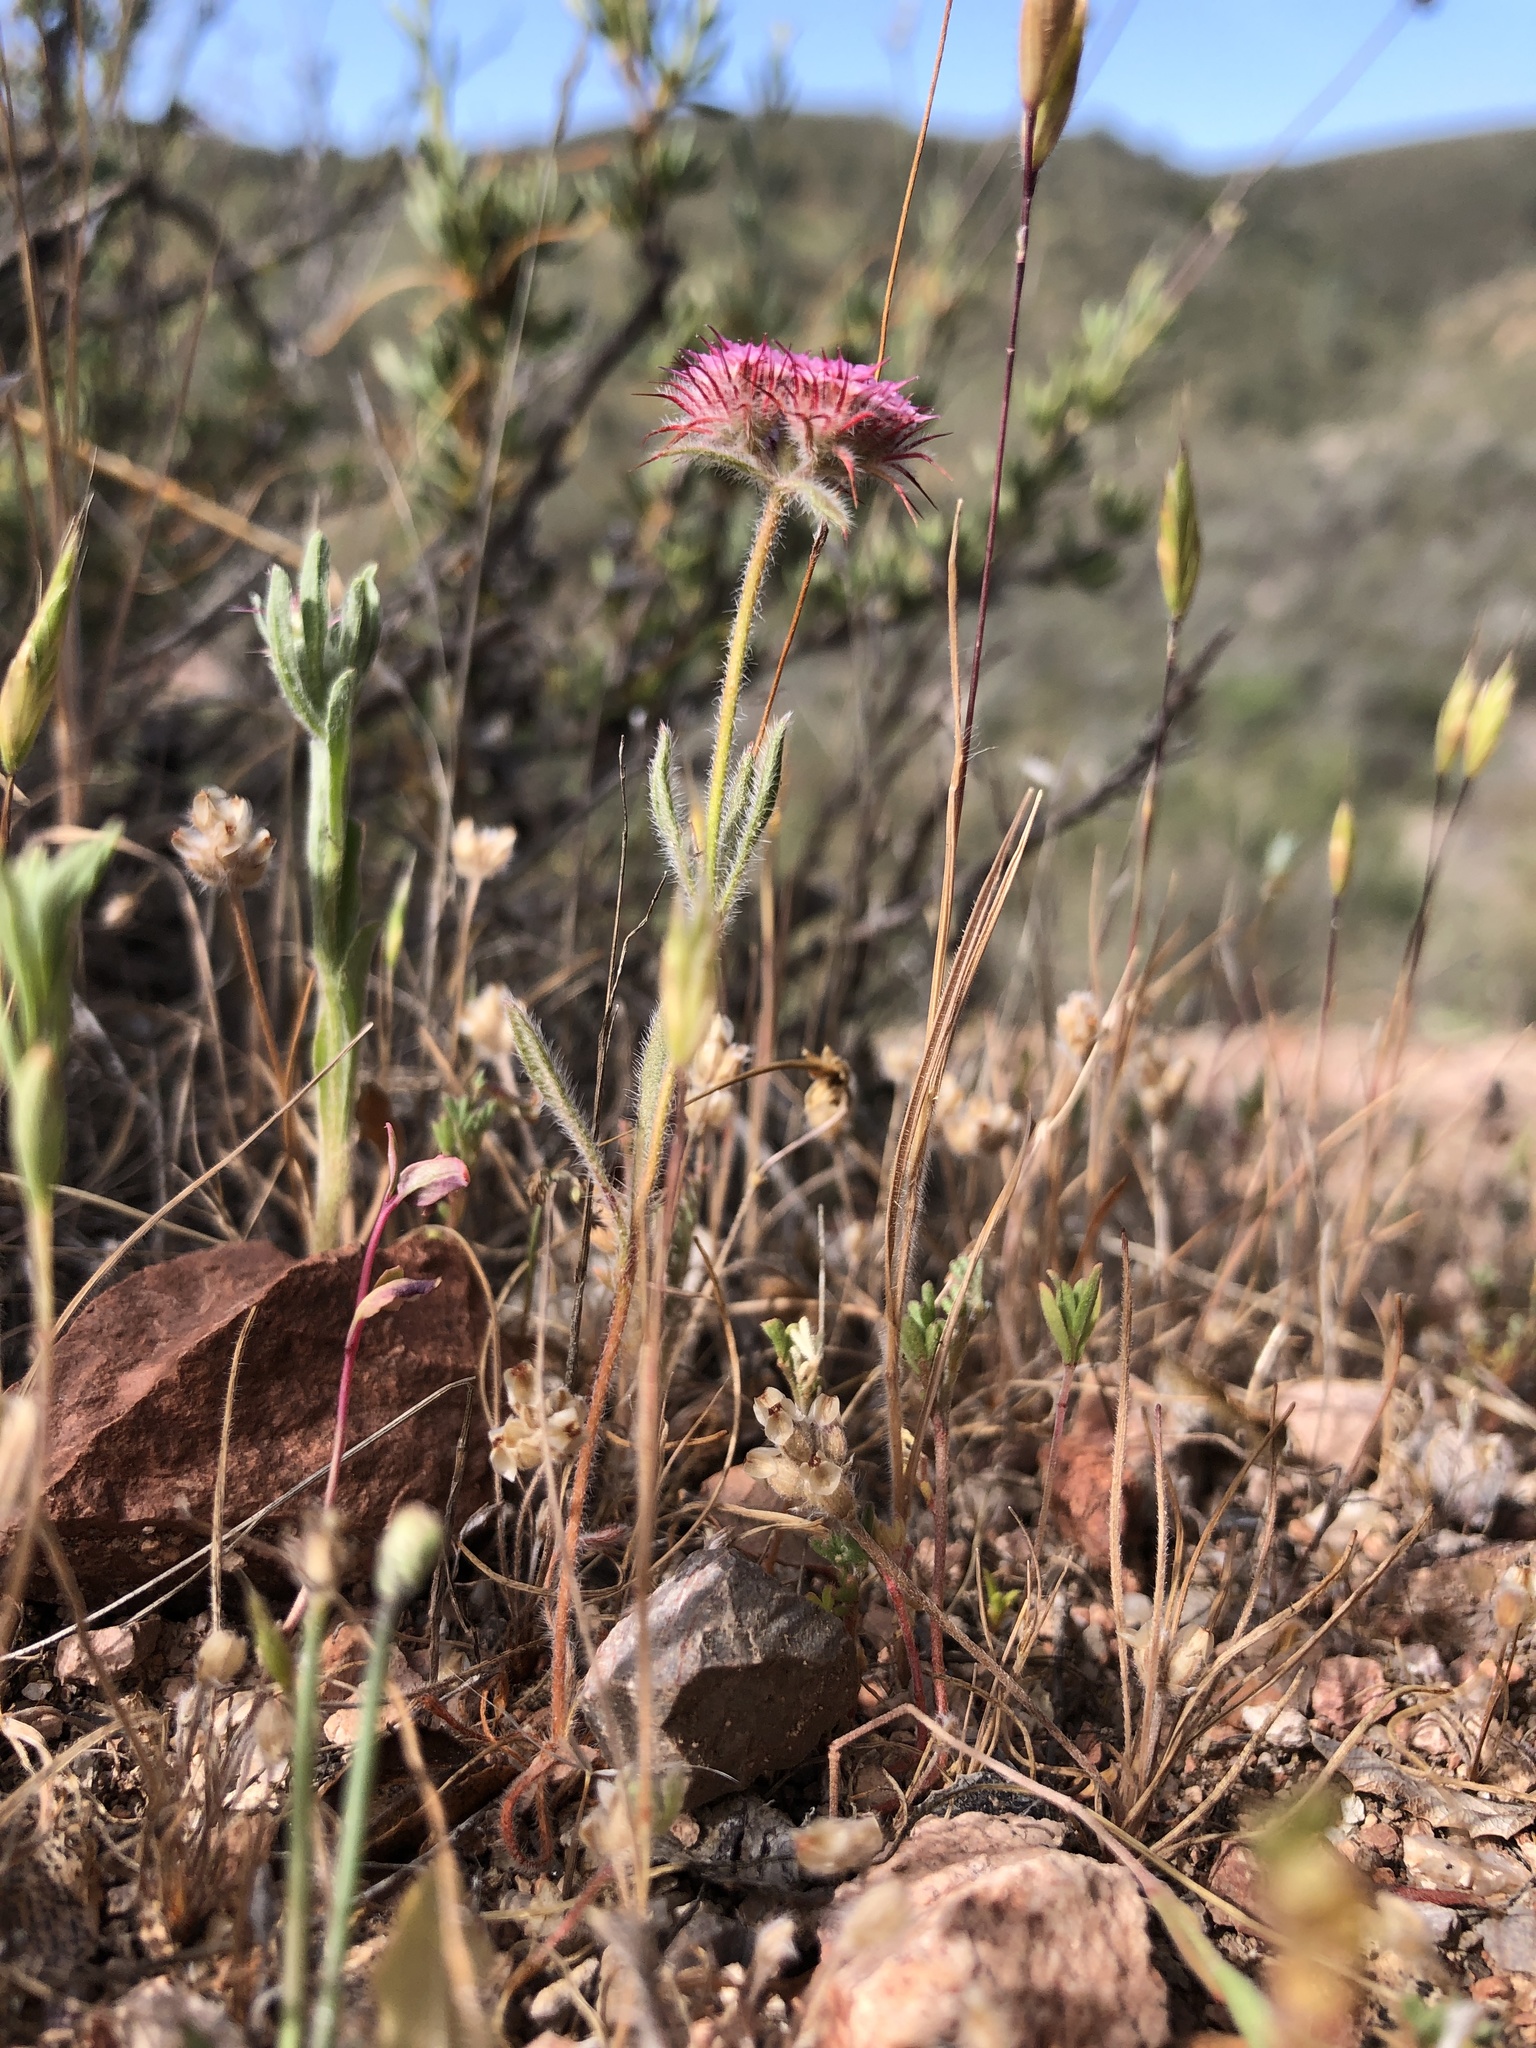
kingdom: Plantae
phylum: Tracheophyta
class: Magnoliopsida
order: Caryophyllales
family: Polygonaceae
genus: Chorizanthe
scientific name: Chorizanthe douglasii
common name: Douglas's spineflower
